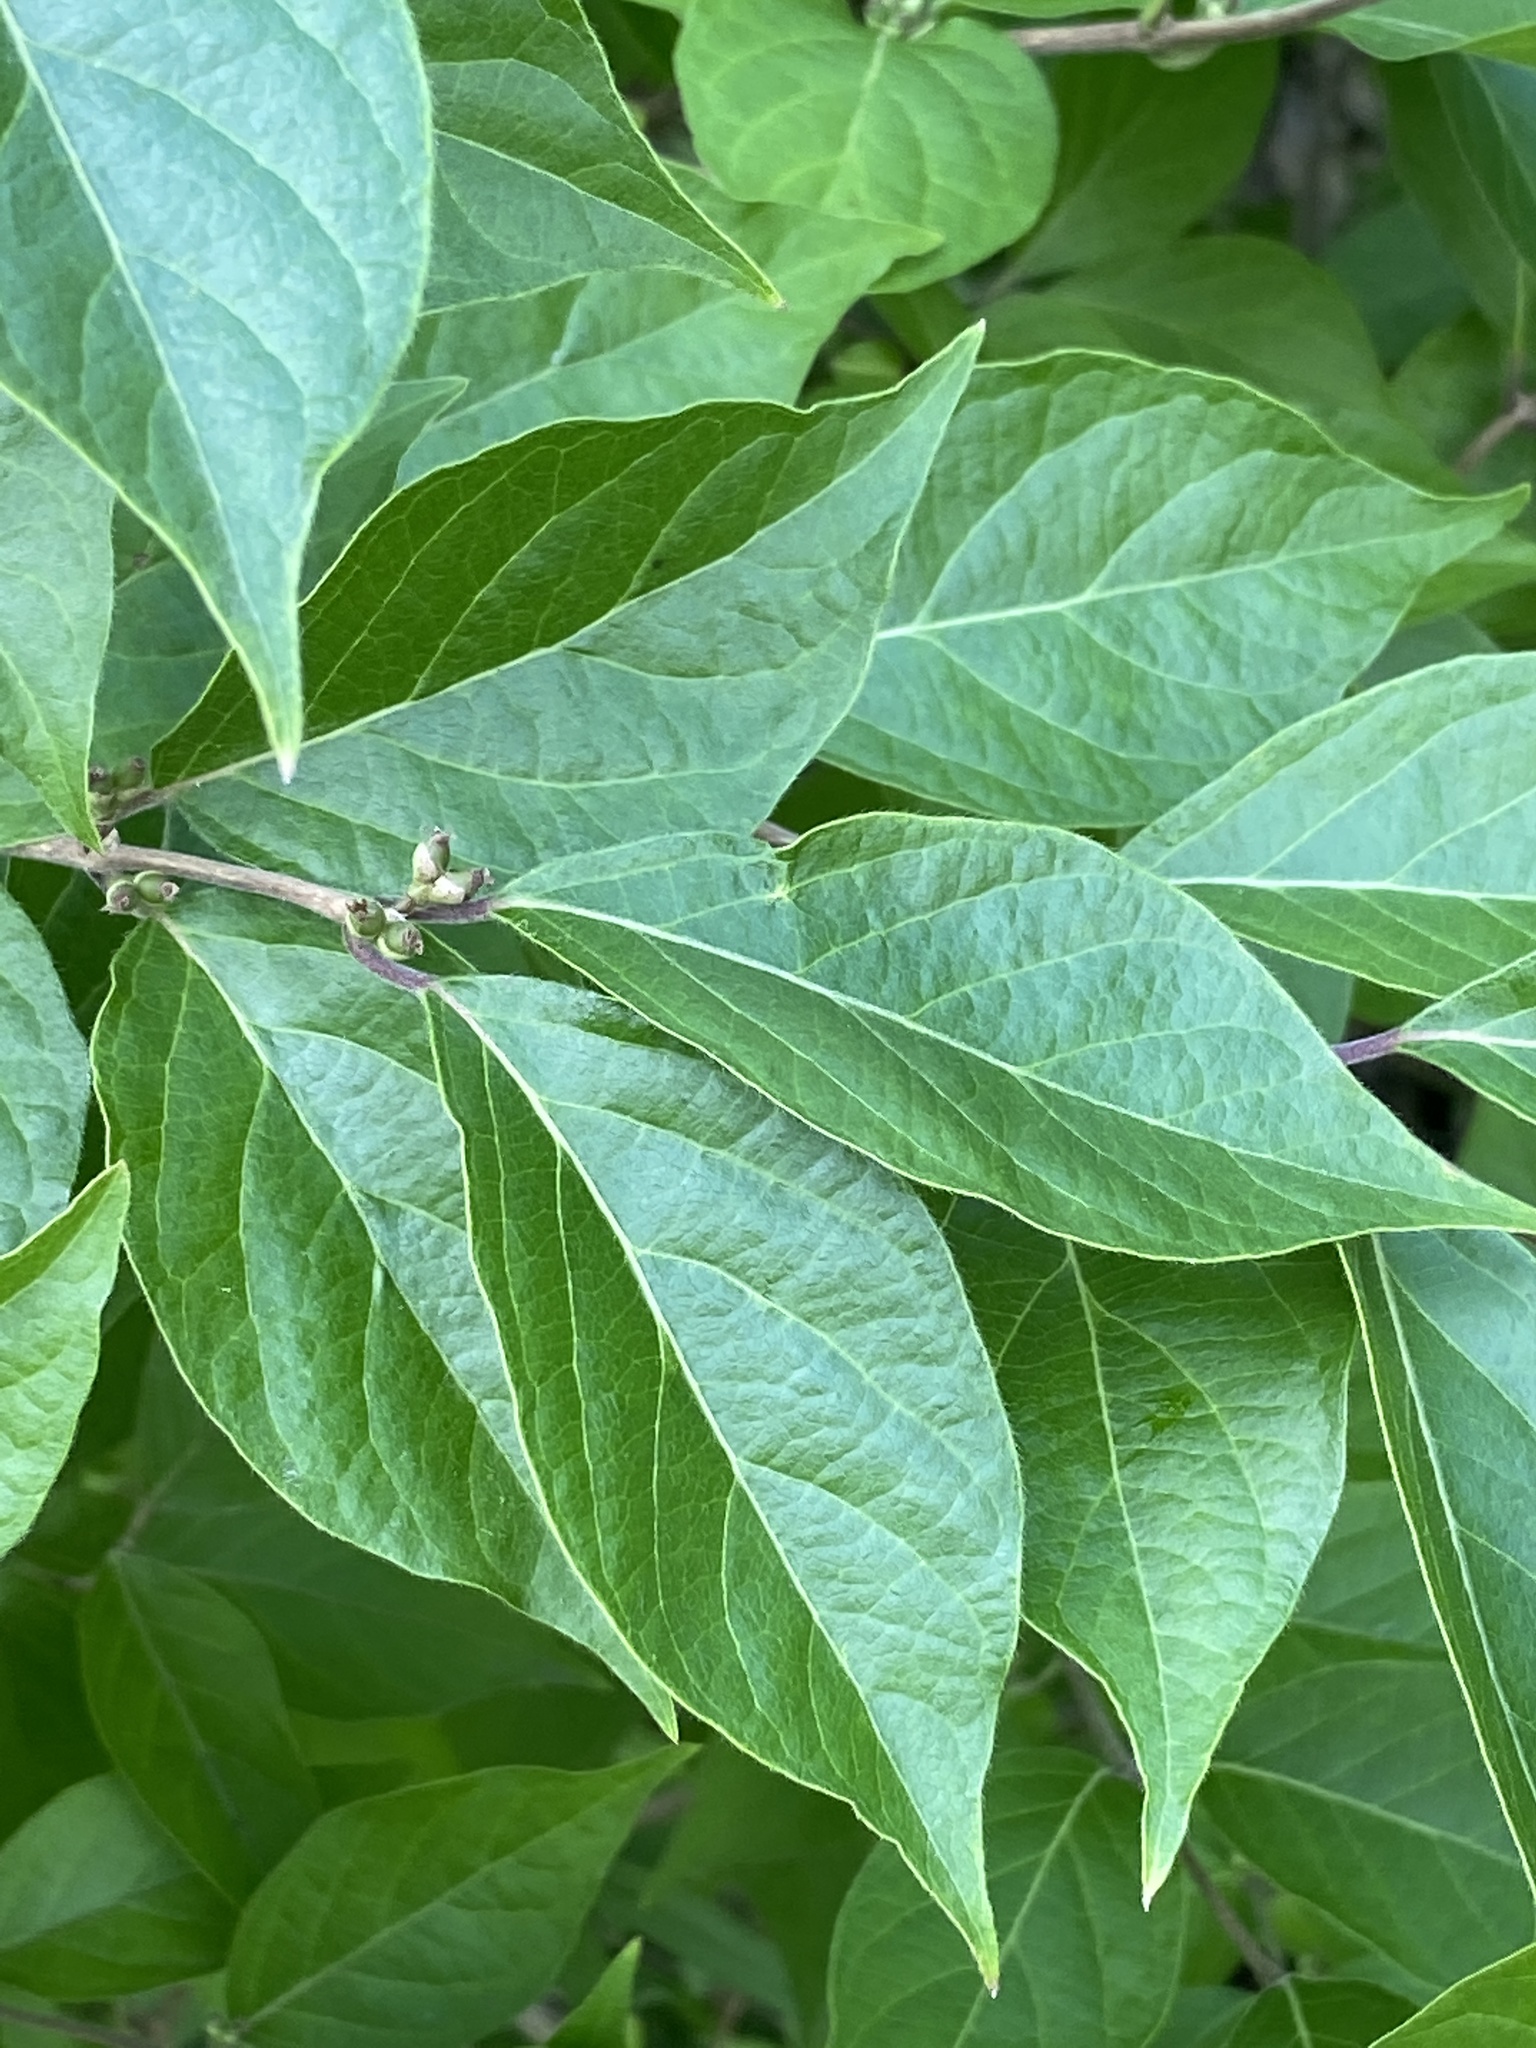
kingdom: Plantae
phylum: Tracheophyta
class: Magnoliopsida
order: Dipsacales
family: Caprifoliaceae
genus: Lonicera
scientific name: Lonicera maackii
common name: Amur honeysuckle
